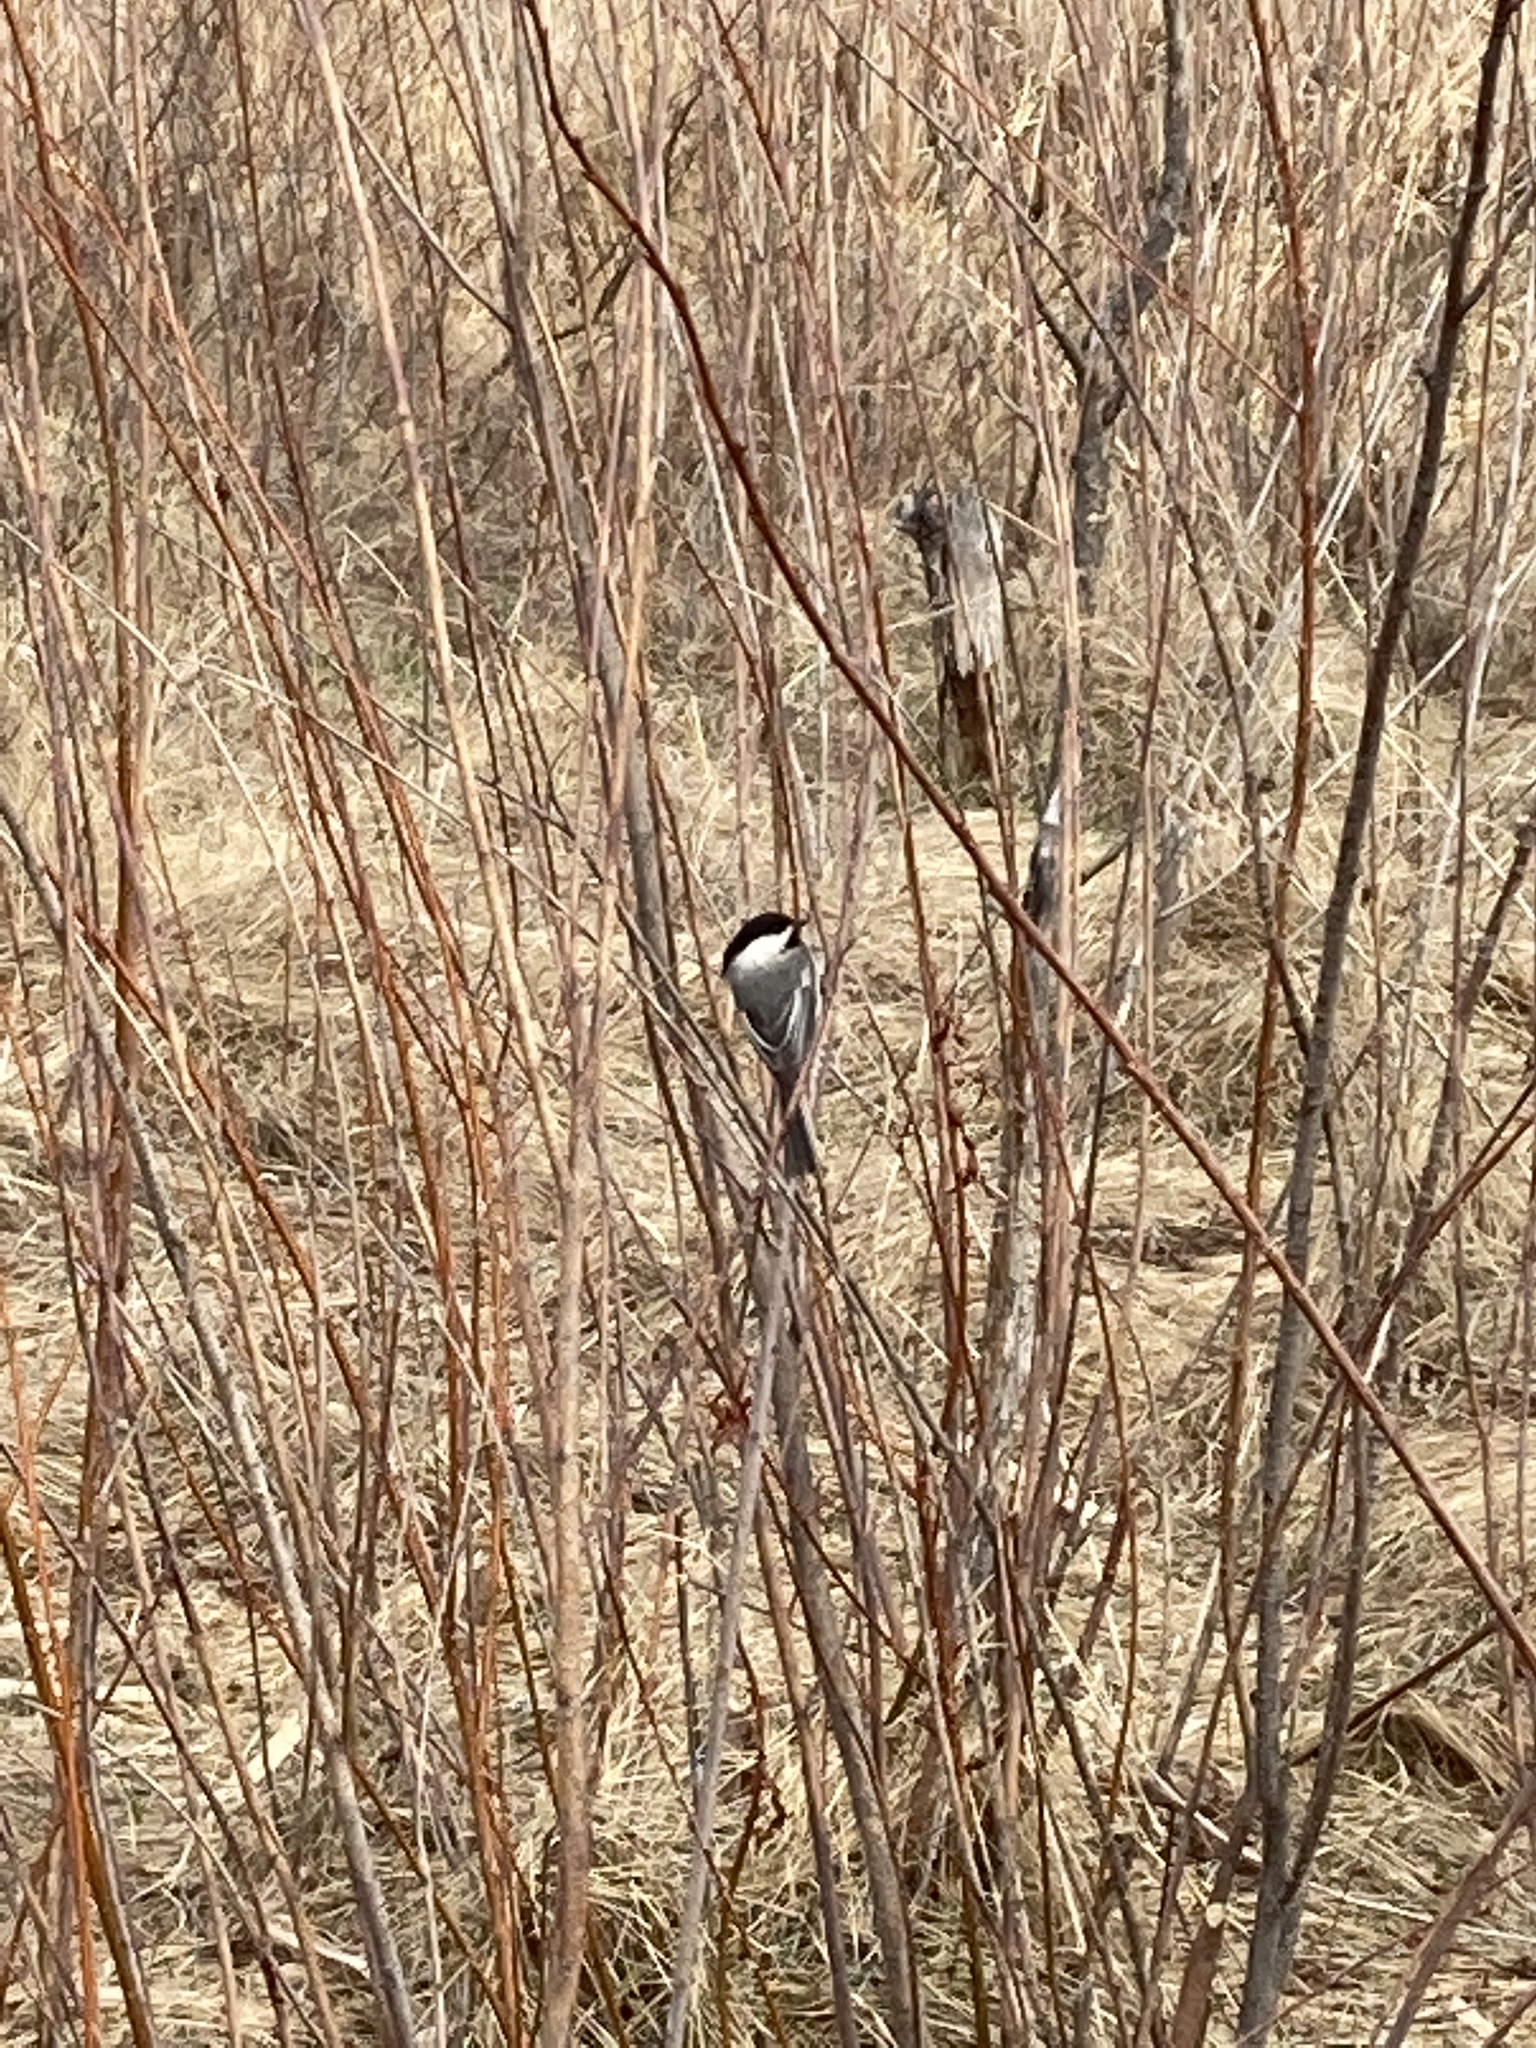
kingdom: Animalia
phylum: Chordata
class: Aves
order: Passeriformes
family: Paridae
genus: Poecile
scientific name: Poecile atricapillus
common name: Black-capped chickadee
